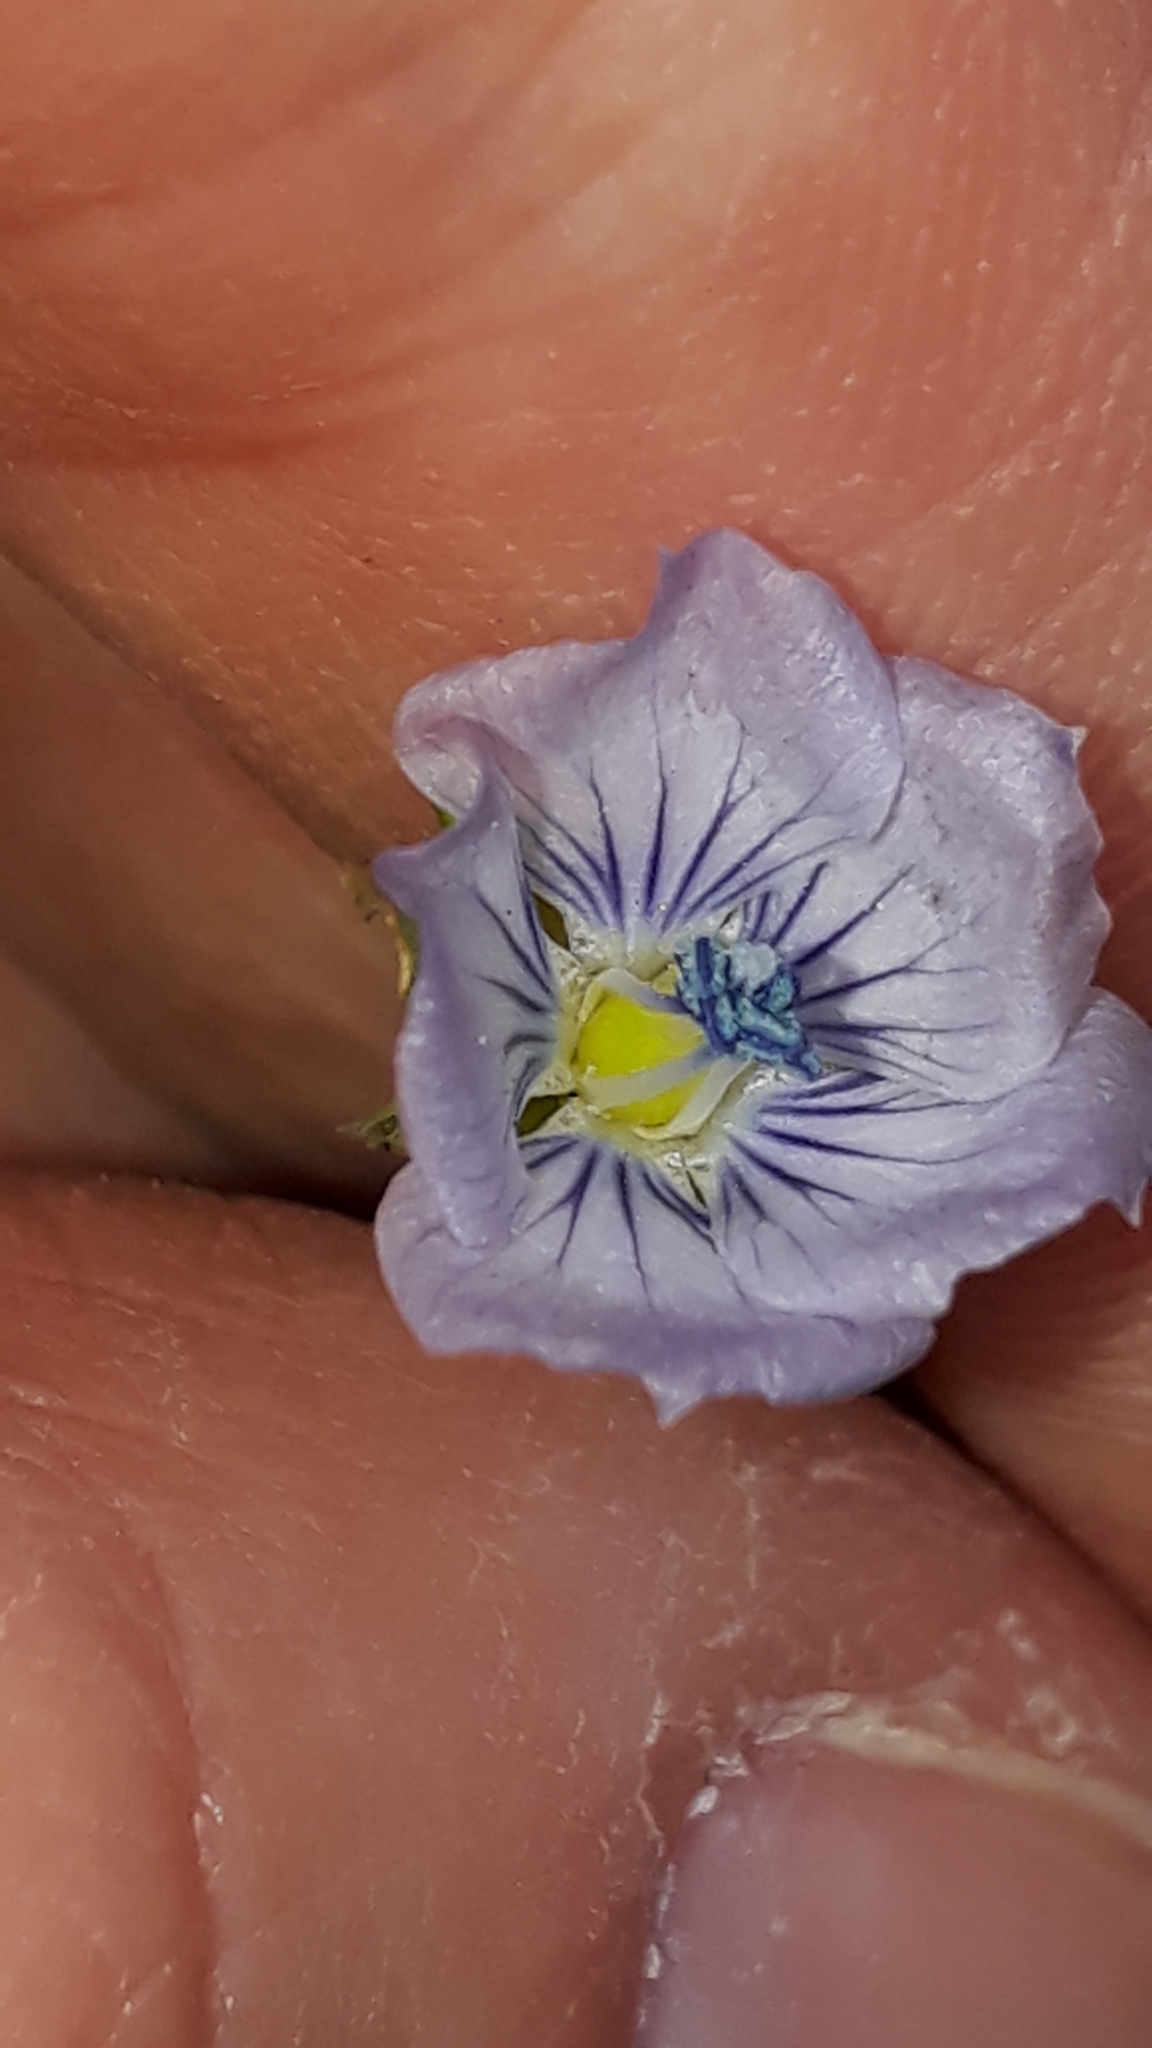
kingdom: Plantae
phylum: Tracheophyta
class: Magnoliopsida
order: Malpighiales
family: Linaceae
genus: Linum
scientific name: Linum bienne
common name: Pale flax
